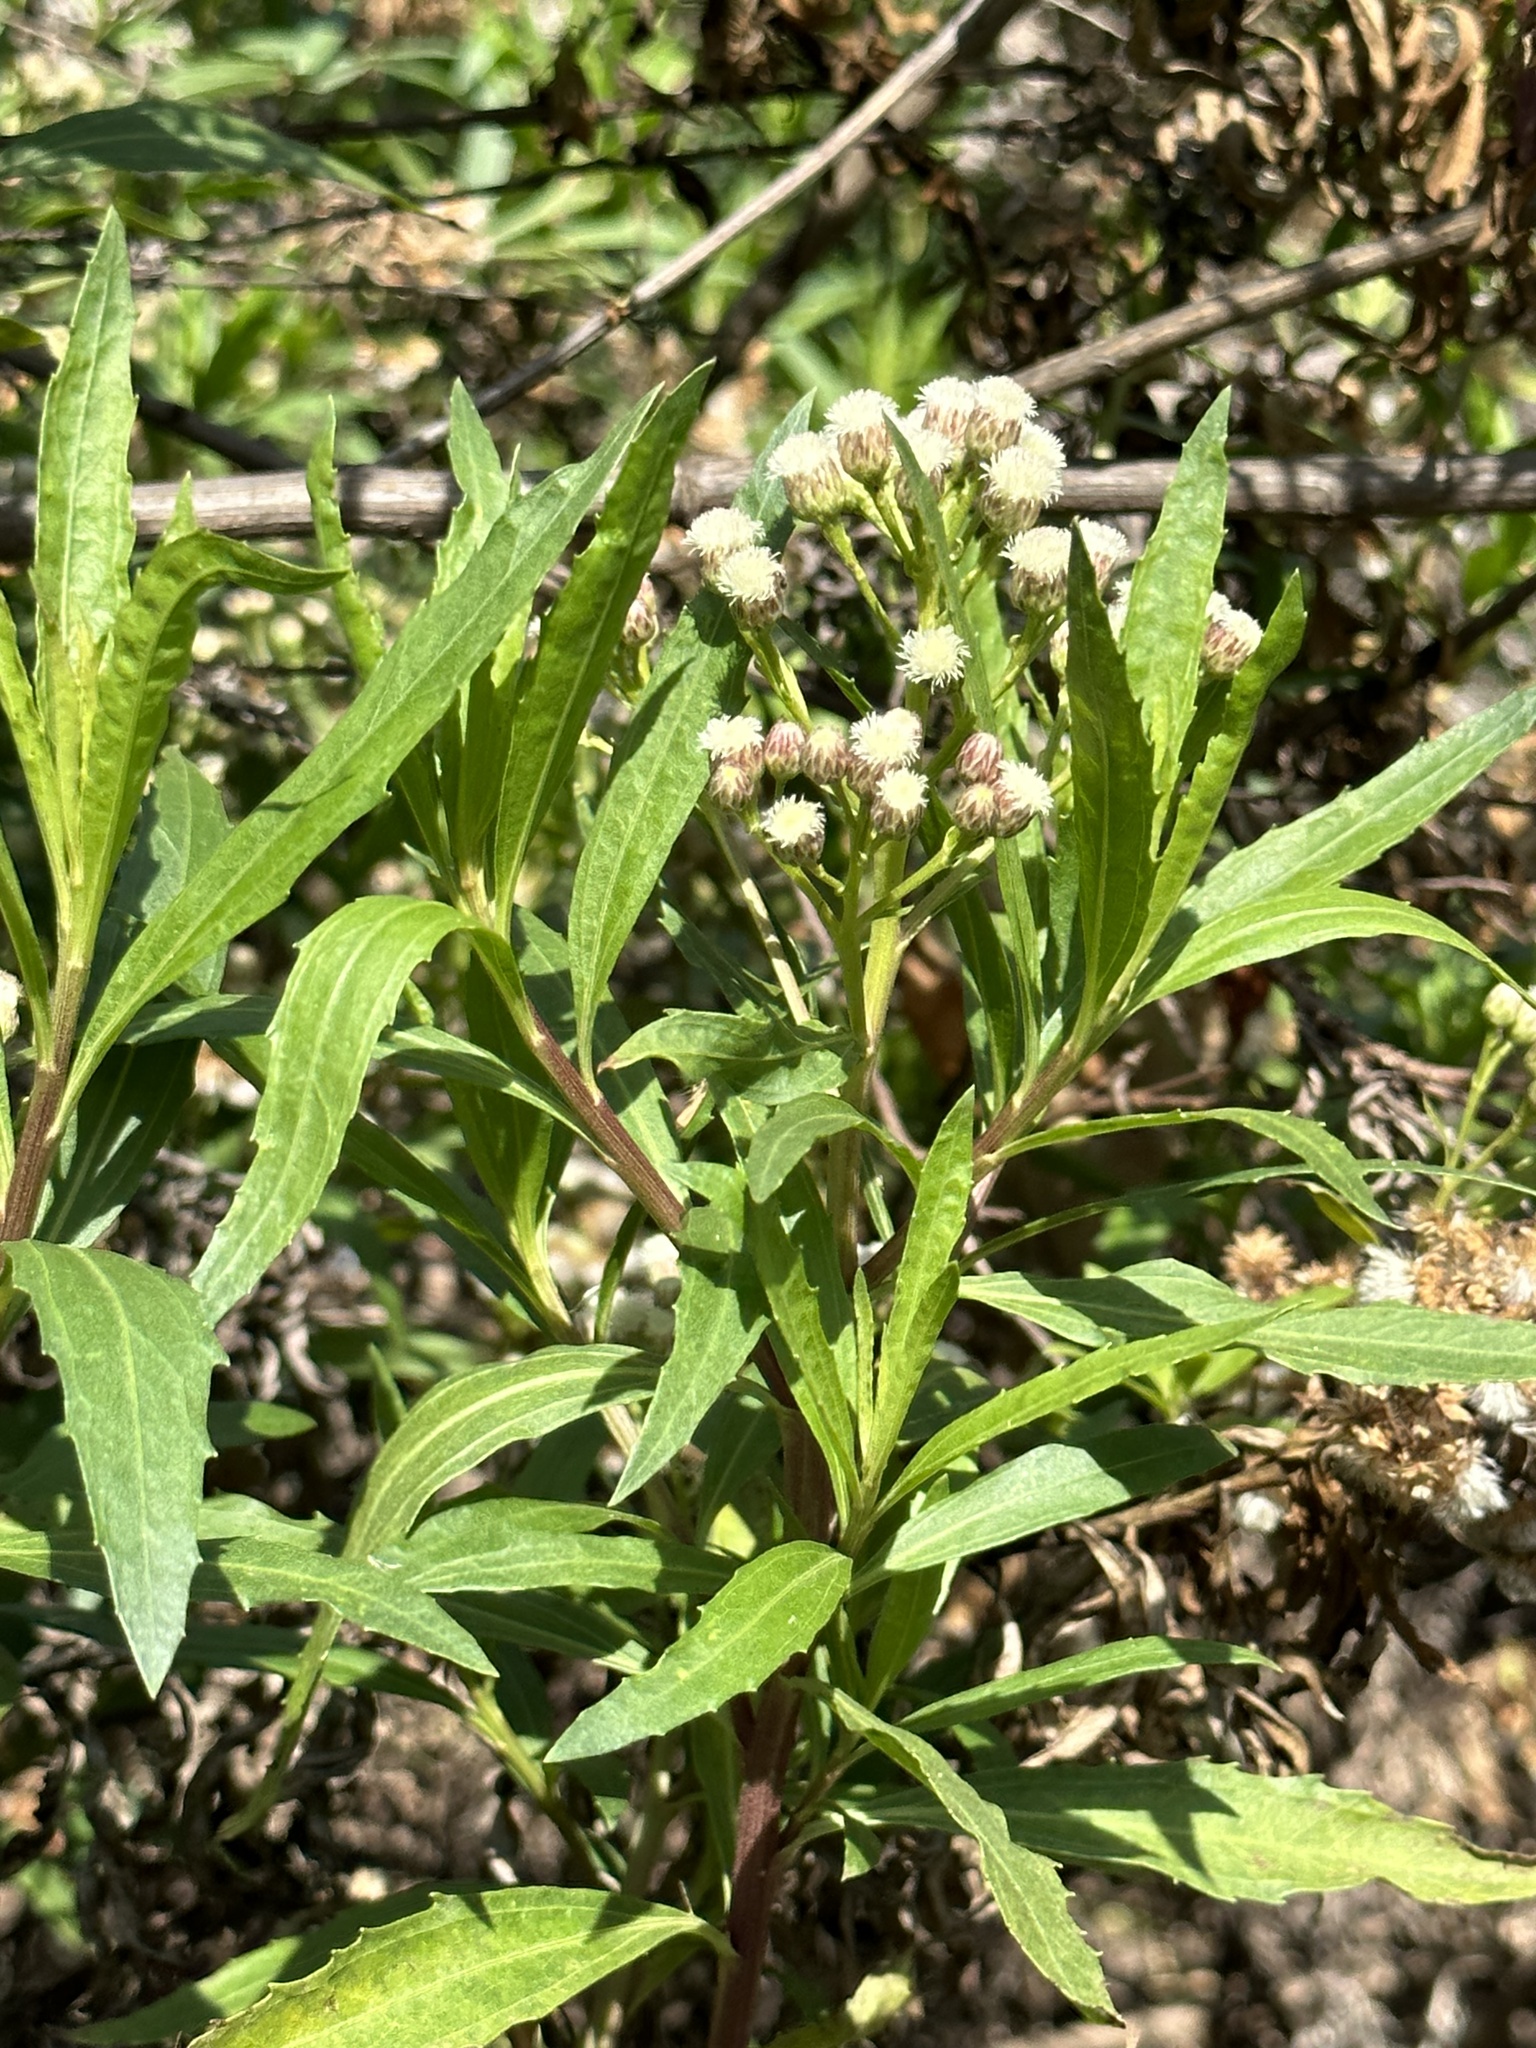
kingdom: Plantae
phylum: Tracheophyta
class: Magnoliopsida
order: Asterales
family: Asteraceae
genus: Baccharis
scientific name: Baccharis salicifolia
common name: Sticky baccharis
